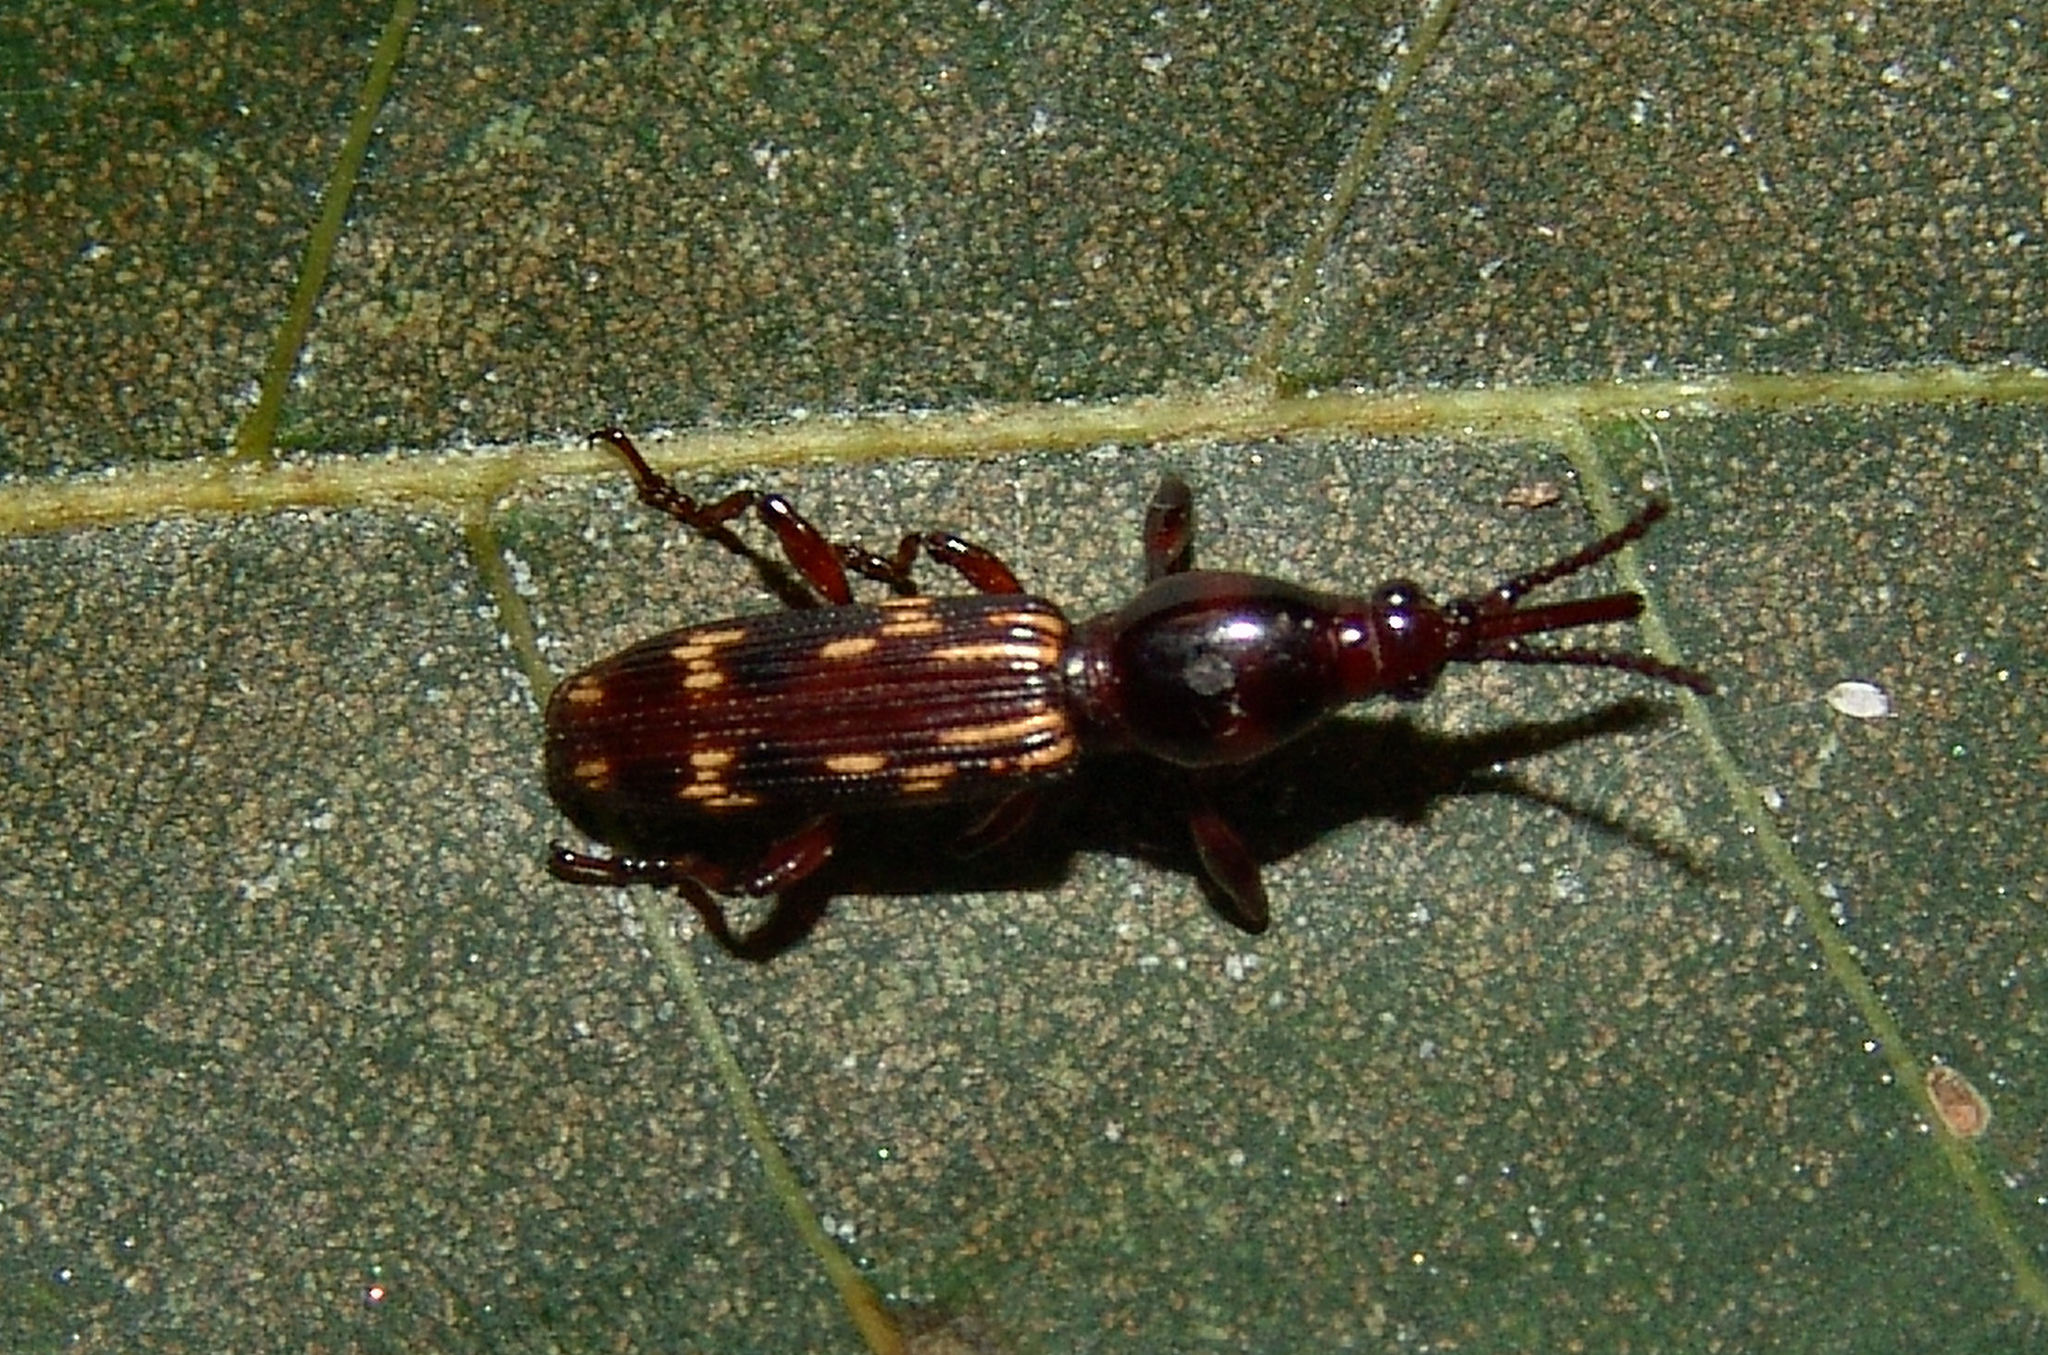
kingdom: Animalia
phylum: Arthropoda
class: Insecta
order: Coleoptera
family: Brentidae
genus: Arrenodes
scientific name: Arrenodes minutus
